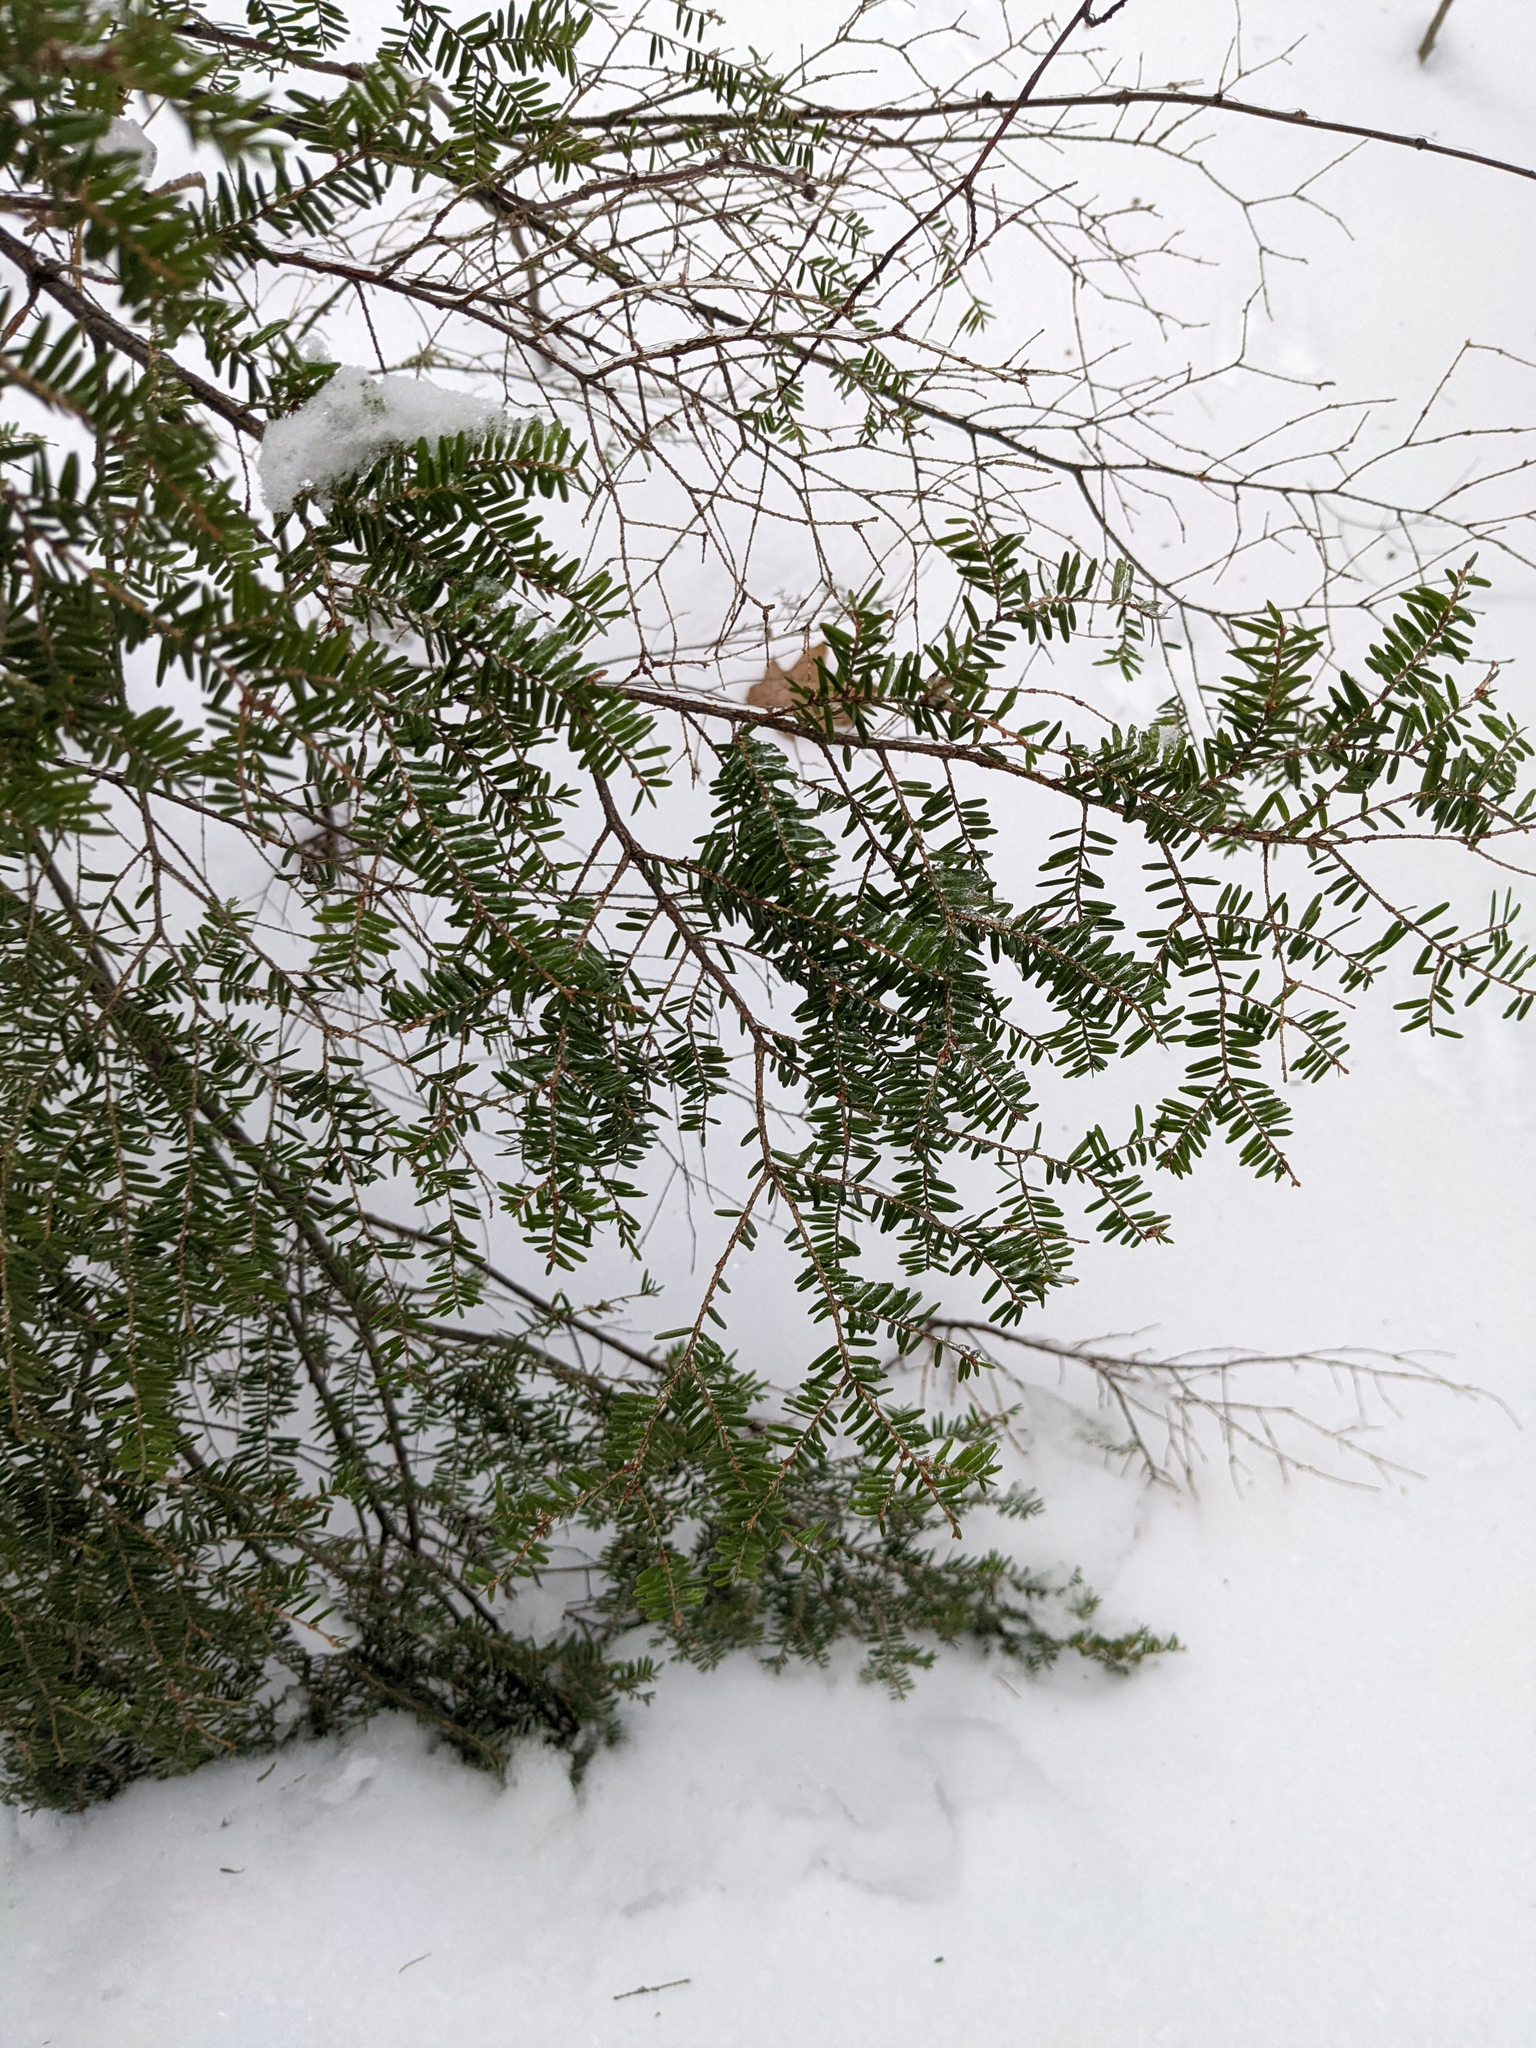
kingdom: Plantae
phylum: Tracheophyta
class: Pinopsida
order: Pinales
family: Pinaceae
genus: Tsuga
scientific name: Tsuga canadensis
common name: Eastern hemlock
